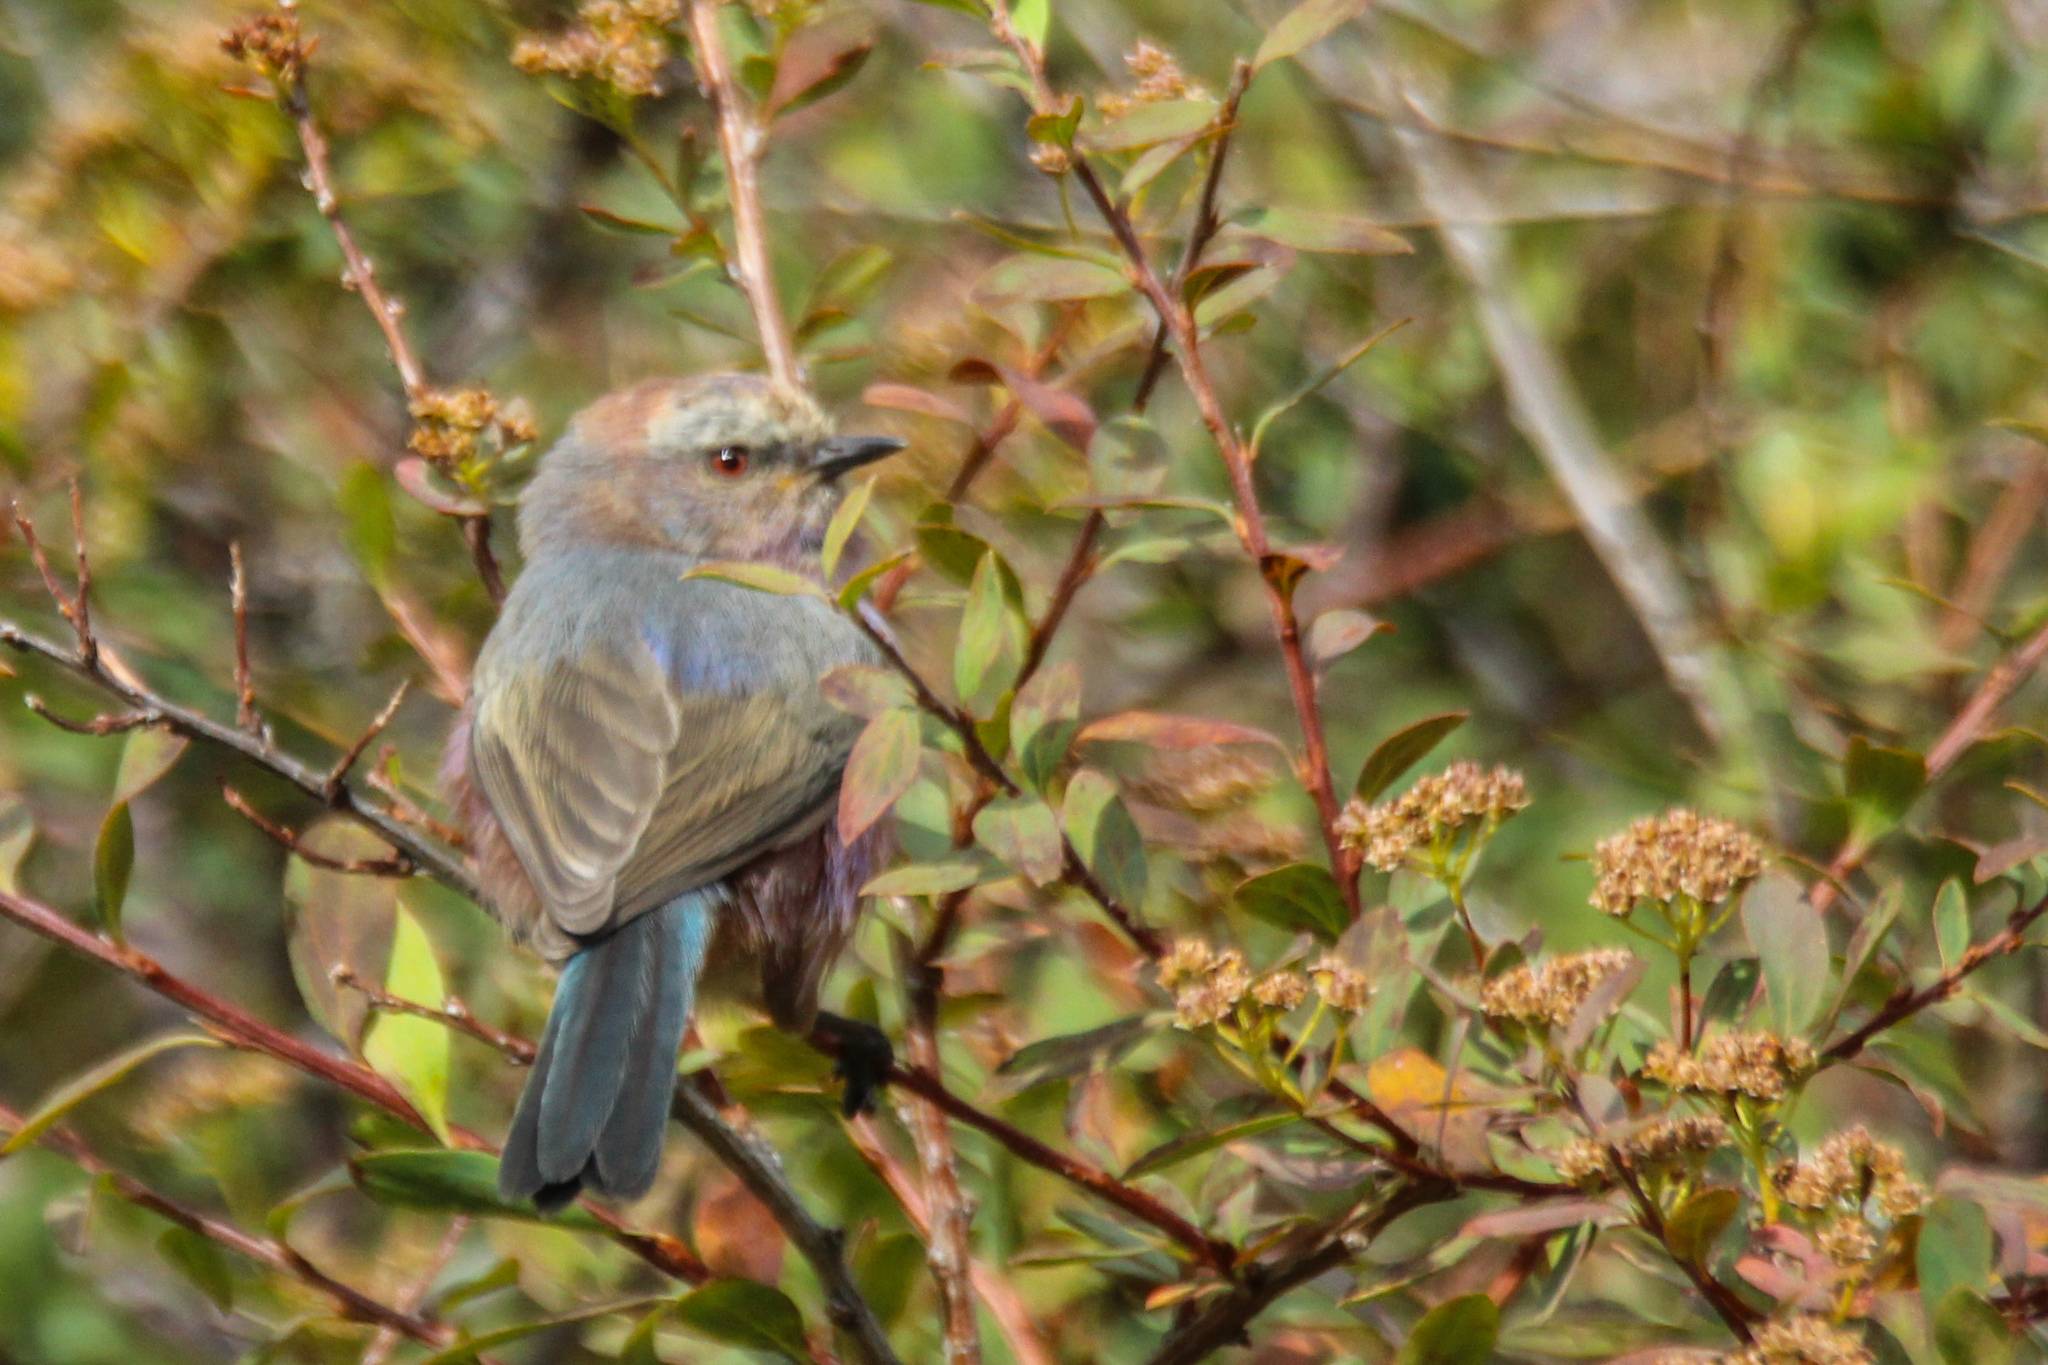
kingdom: Animalia
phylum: Chordata
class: Aves
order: Passeriformes
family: Aegithalidae
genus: Leptopoecile
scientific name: Leptopoecile sophiae
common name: White-browed tit-warbler
